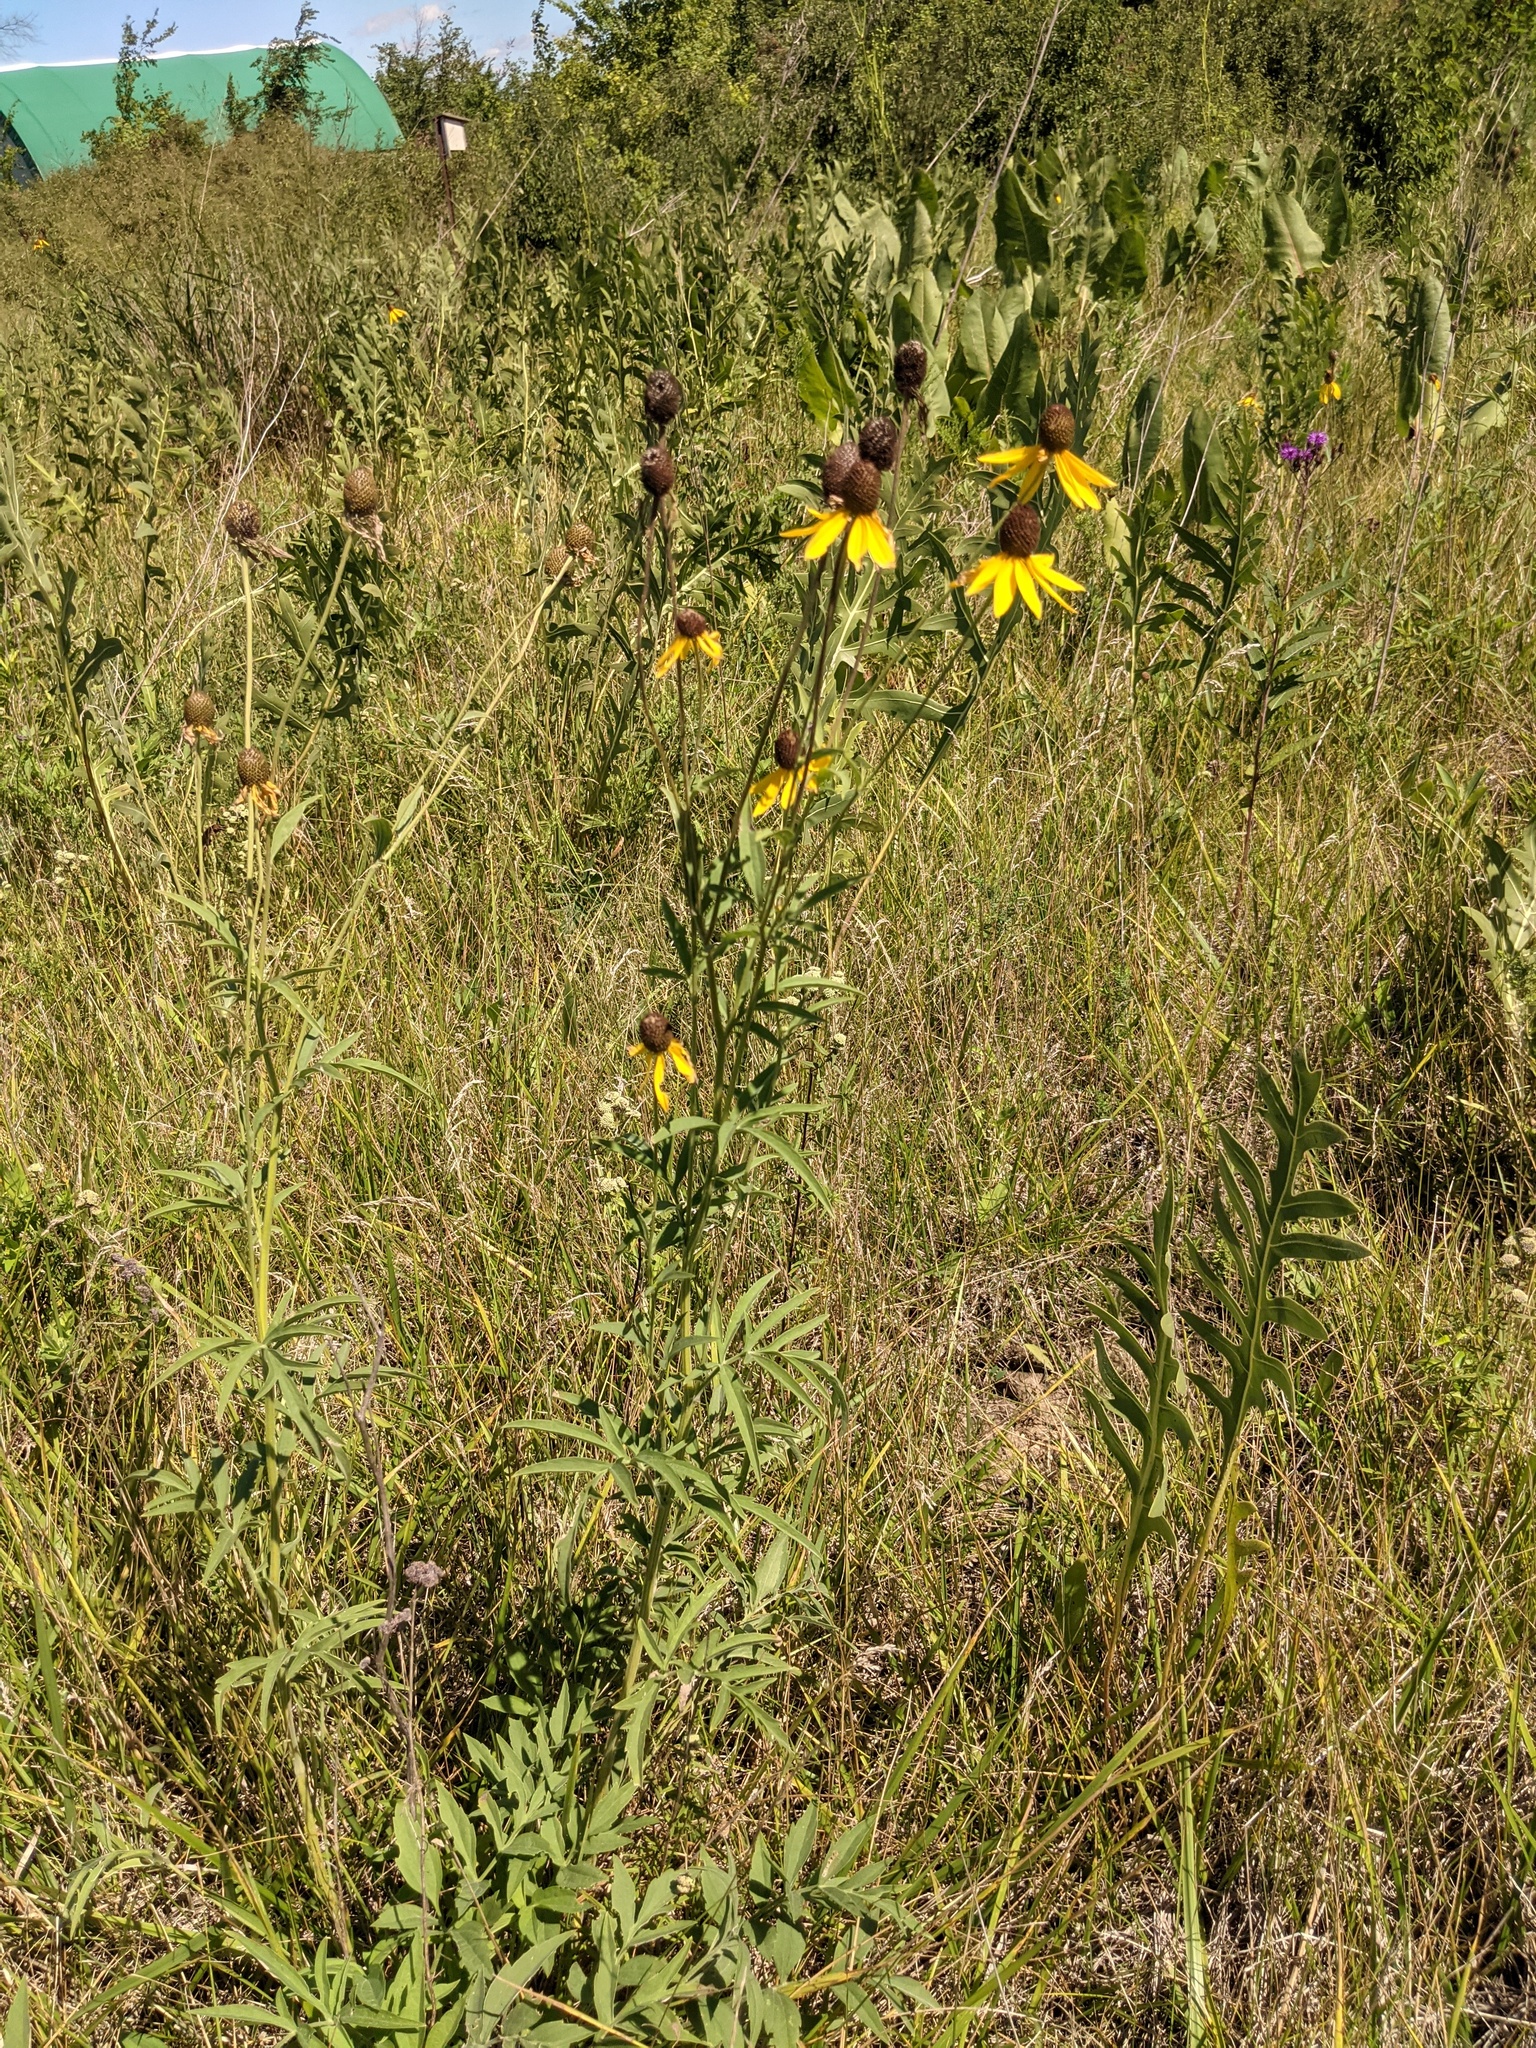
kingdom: Plantae
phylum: Tracheophyta
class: Magnoliopsida
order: Asterales
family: Asteraceae
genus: Ratibida
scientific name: Ratibida pinnata
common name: Drooping prairie-coneflower
